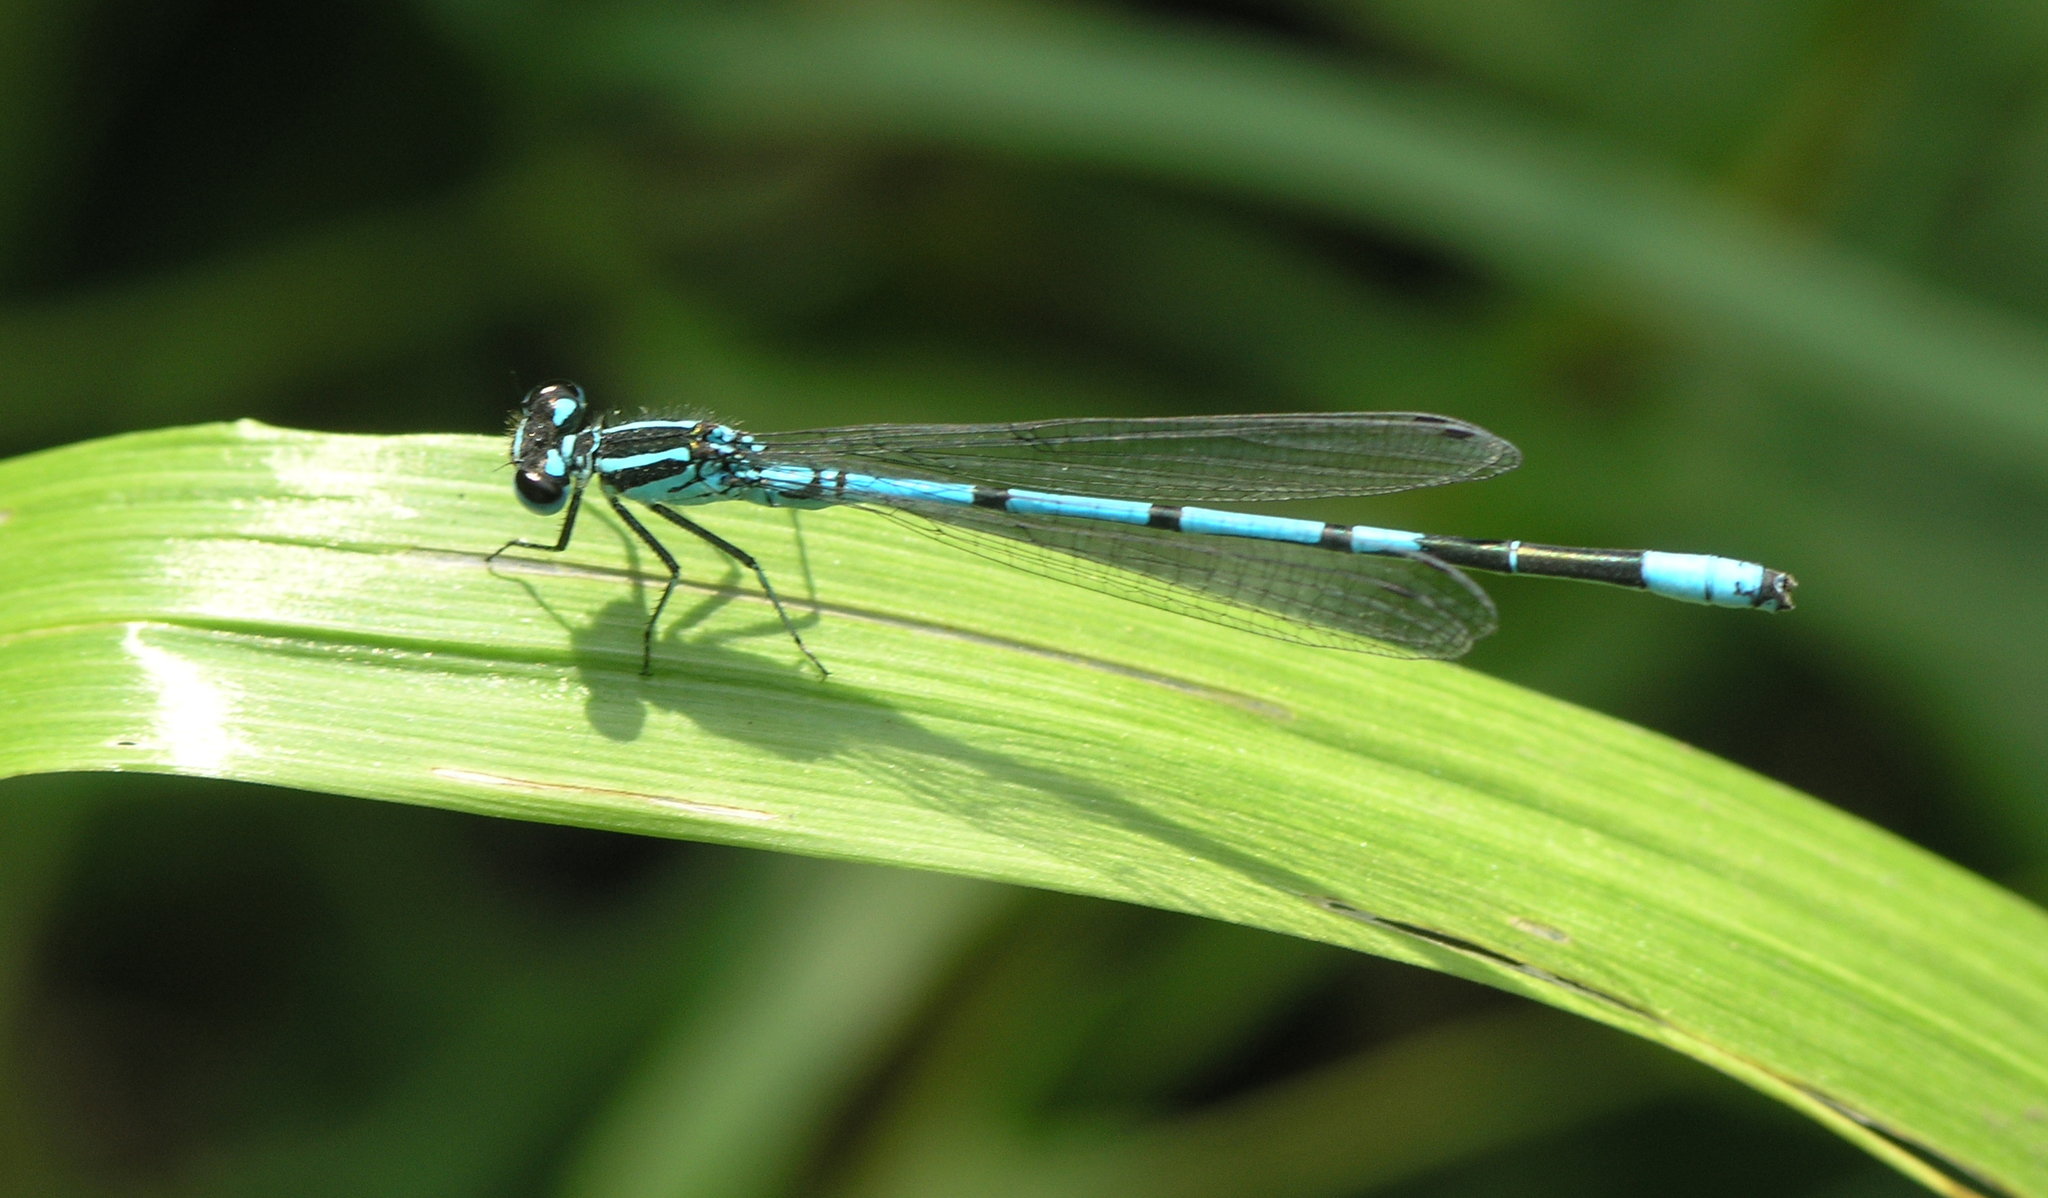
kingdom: Animalia
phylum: Arthropoda
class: Insecta
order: Odonata
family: Coenagrionidae
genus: Coenagrion
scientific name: Coenagrion puella
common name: Azure damselfly
